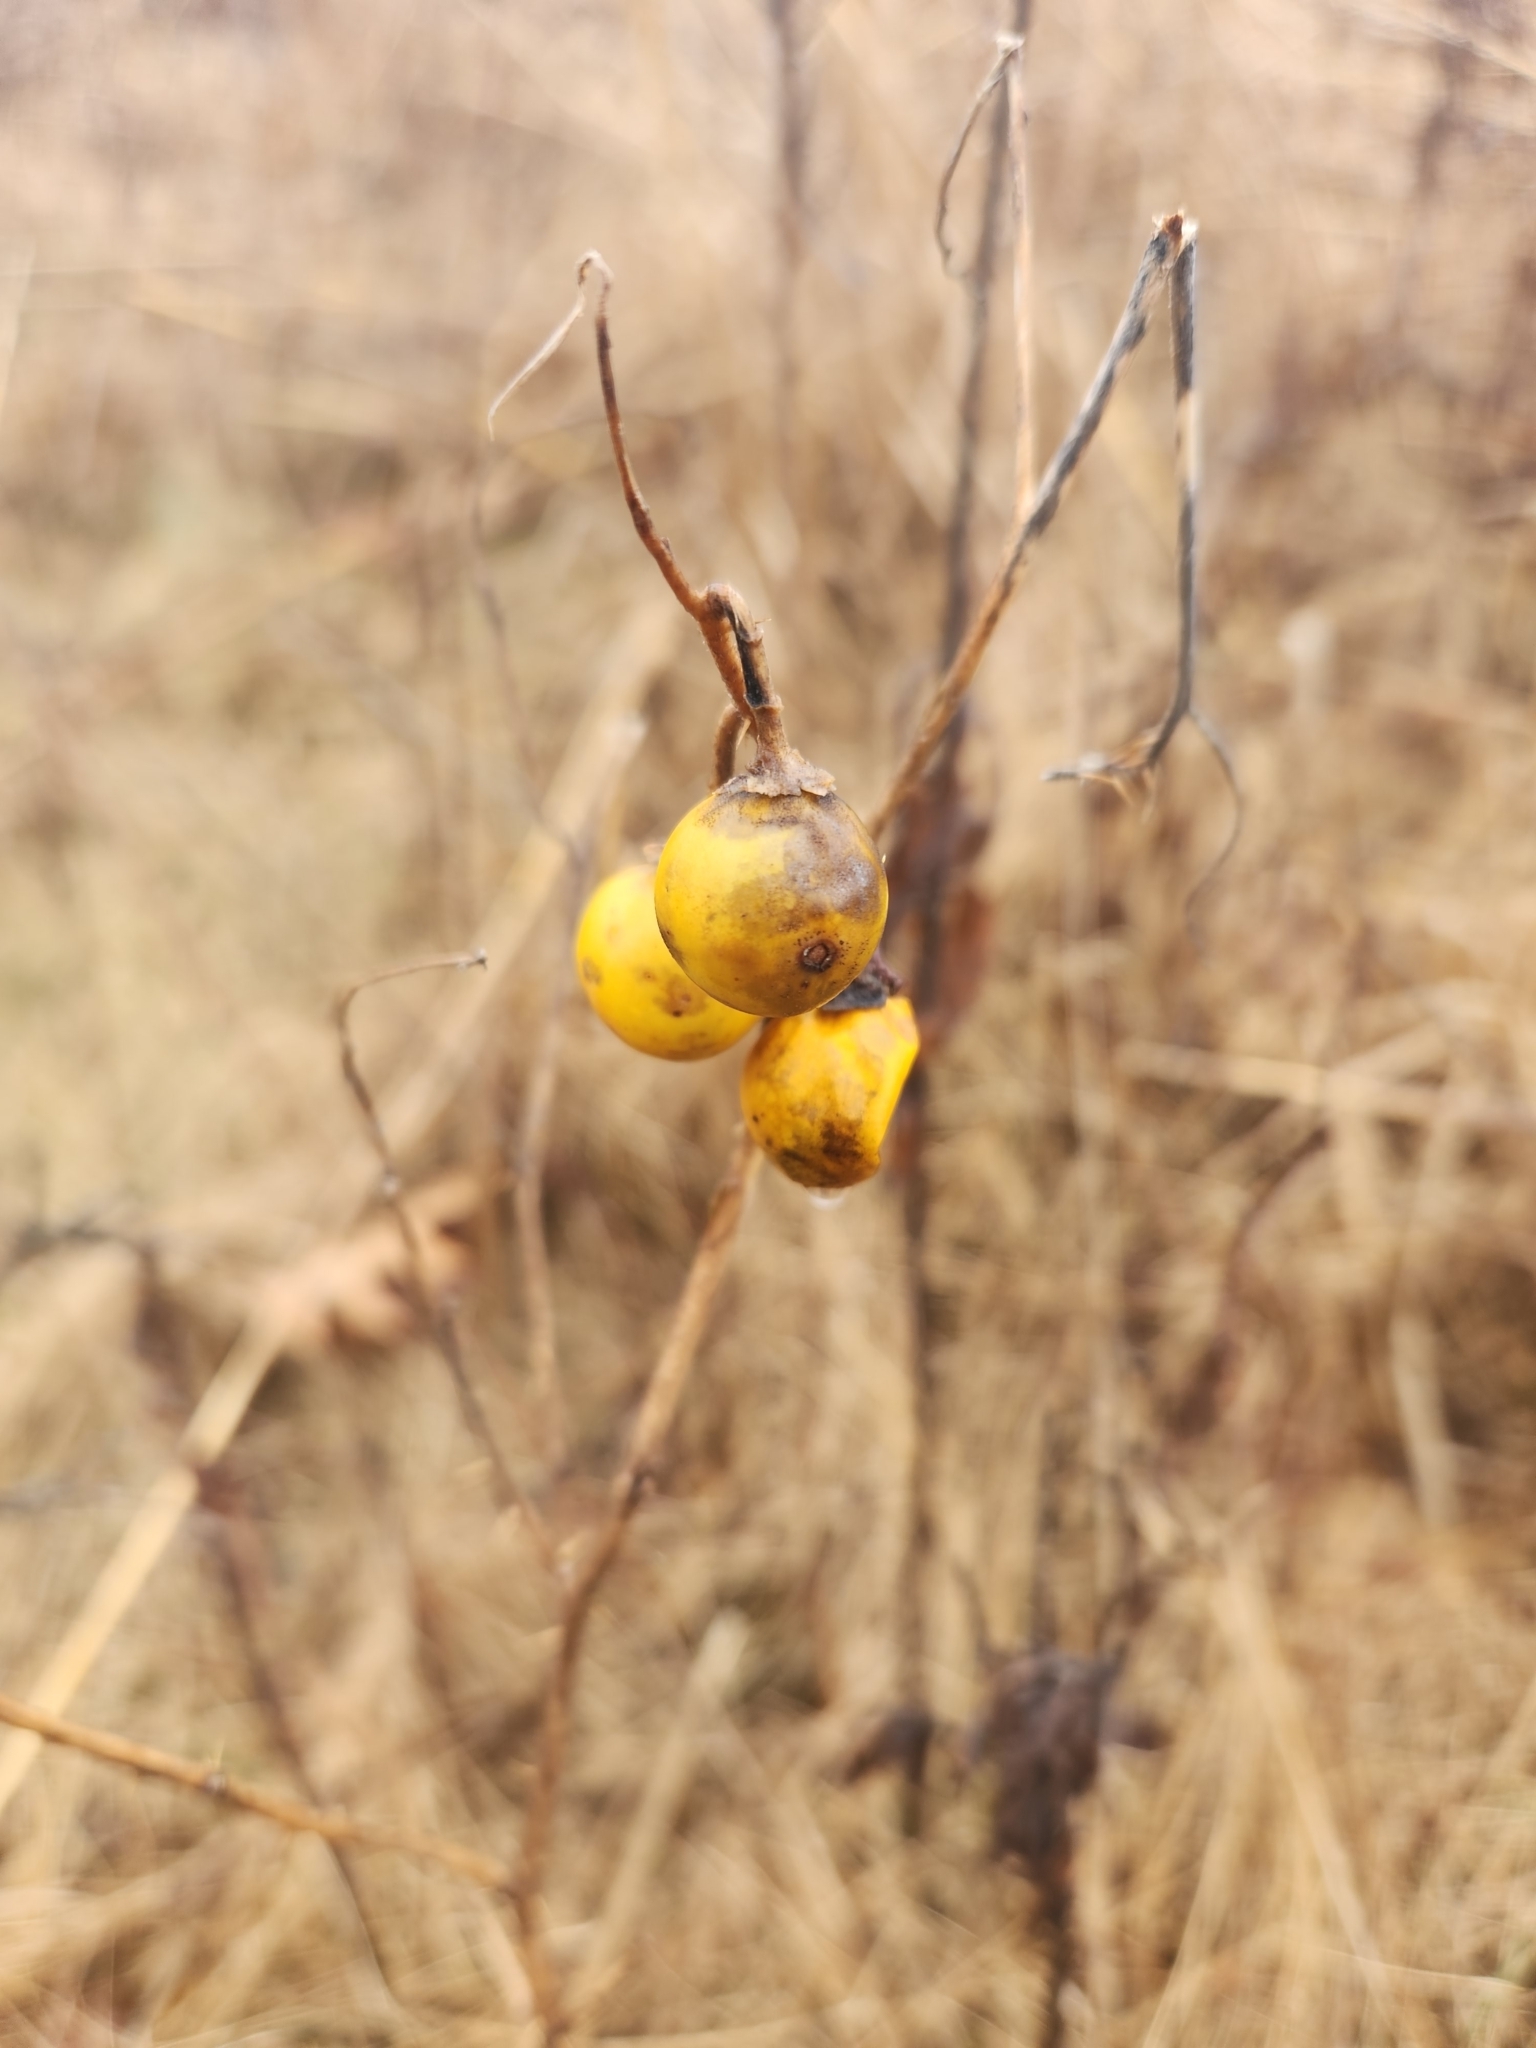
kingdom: Plantae
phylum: Tracheophyta
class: Magnoliopsida
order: Solanales
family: Solanaceae
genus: Solanum
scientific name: Solanum carolinense
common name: Horse-nettle
